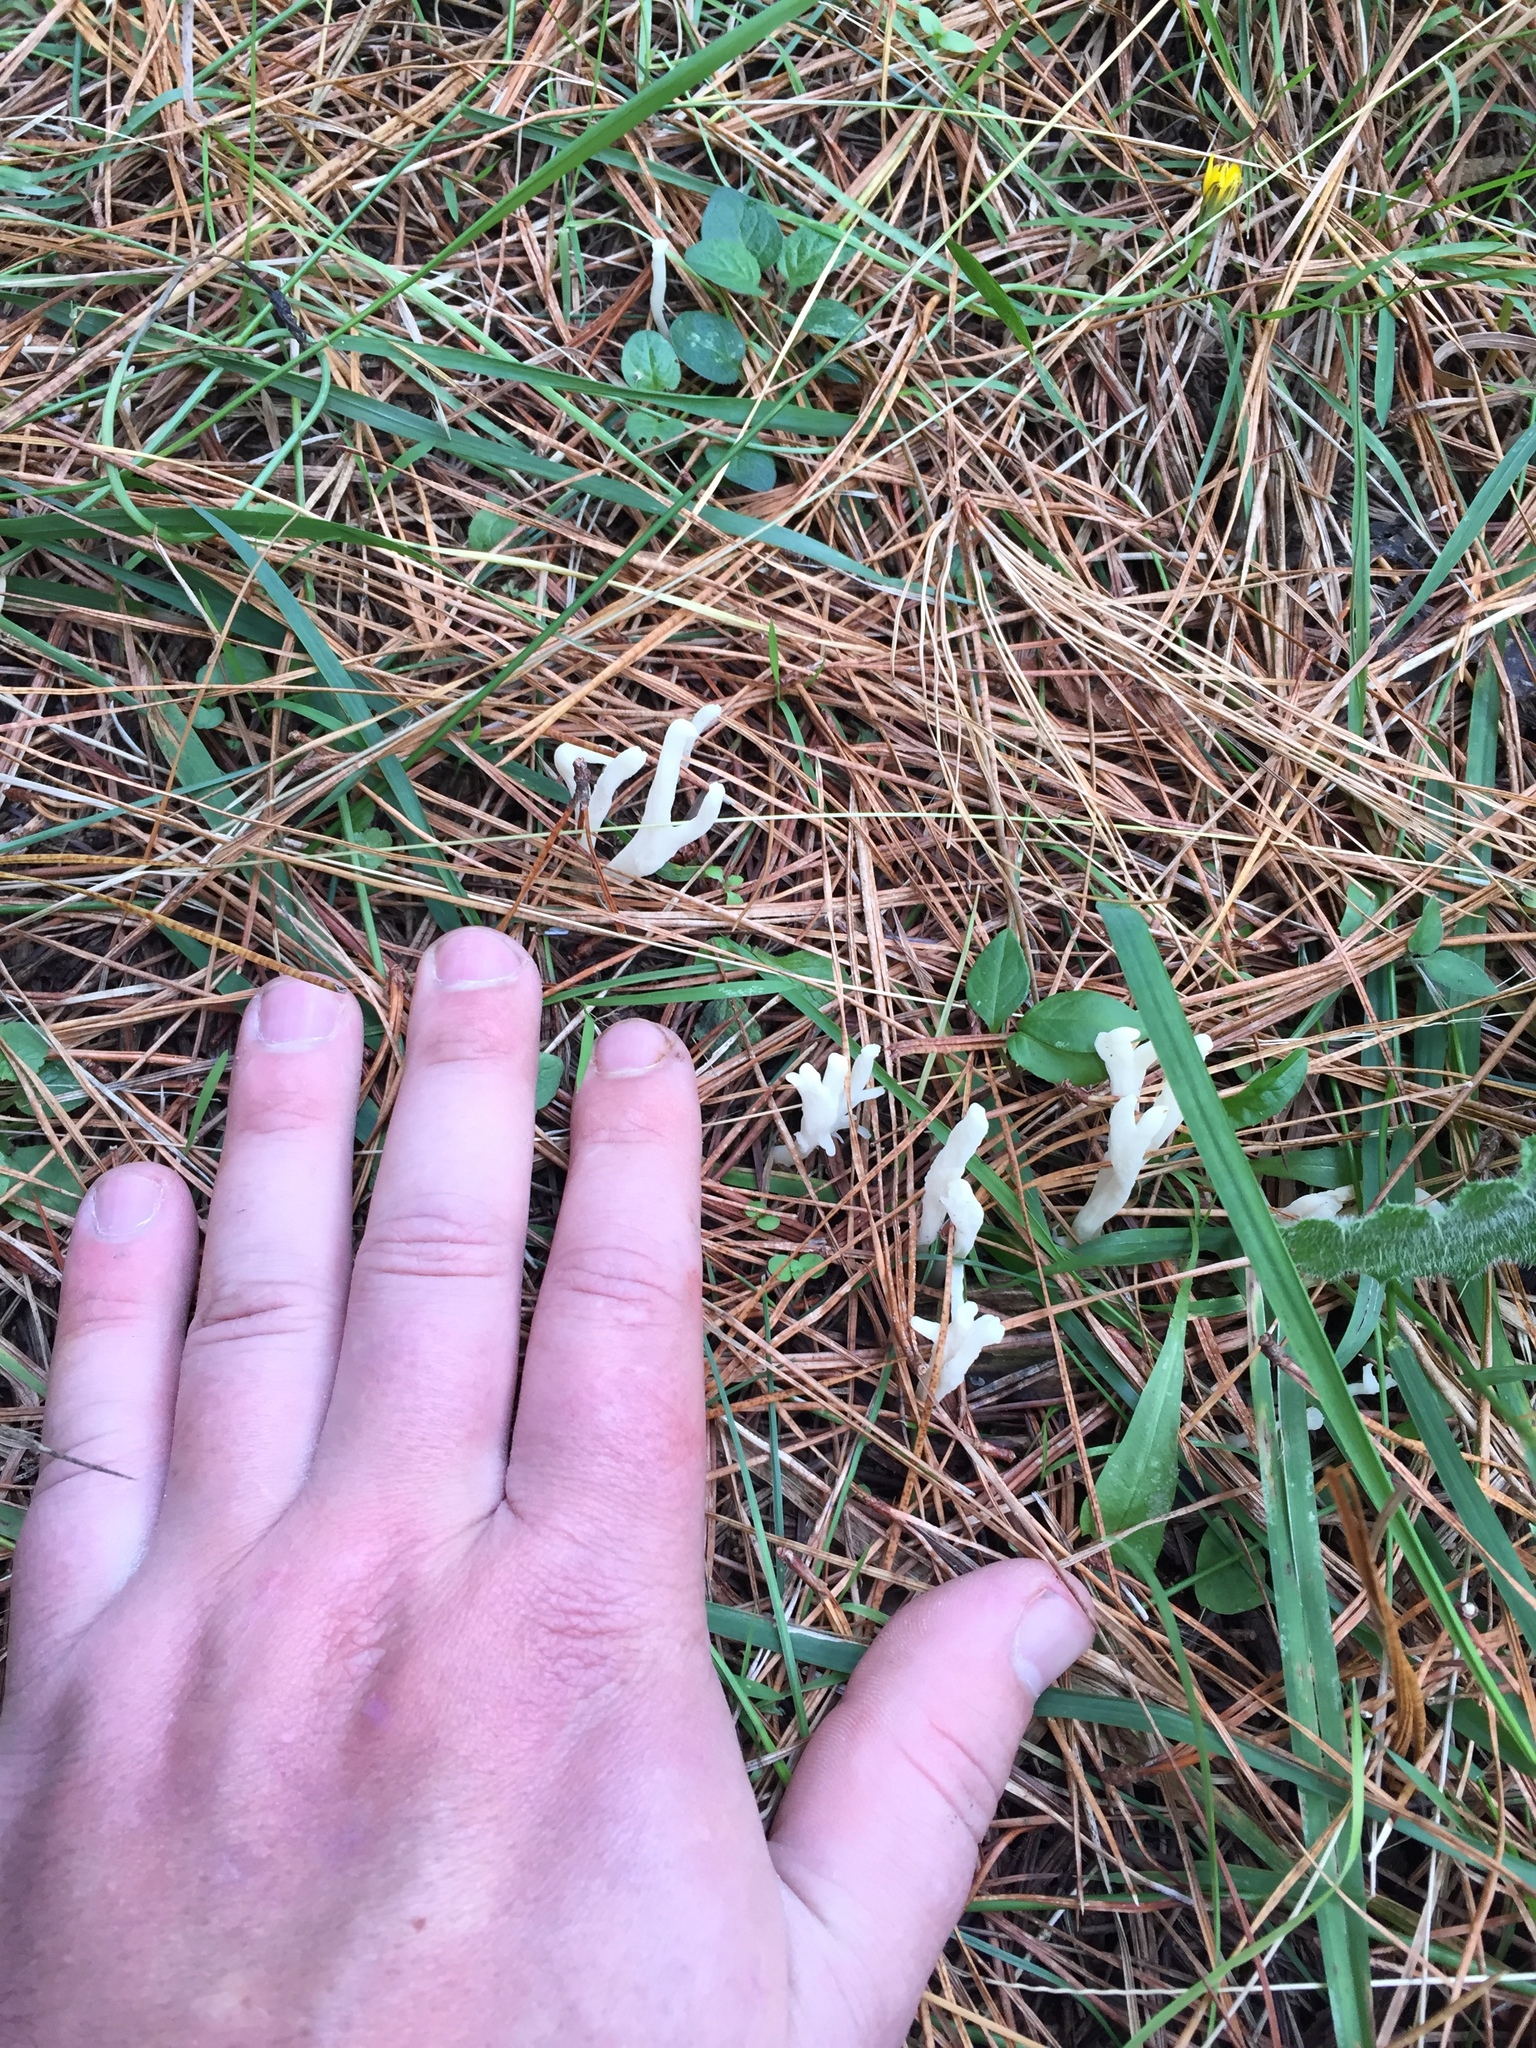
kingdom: Fungi
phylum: Basidiomycota
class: Agaricomycetes
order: Cantharellales
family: Hydnaceae
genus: Clavulina
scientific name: Clavulina rugosa
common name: Wrinkled club
